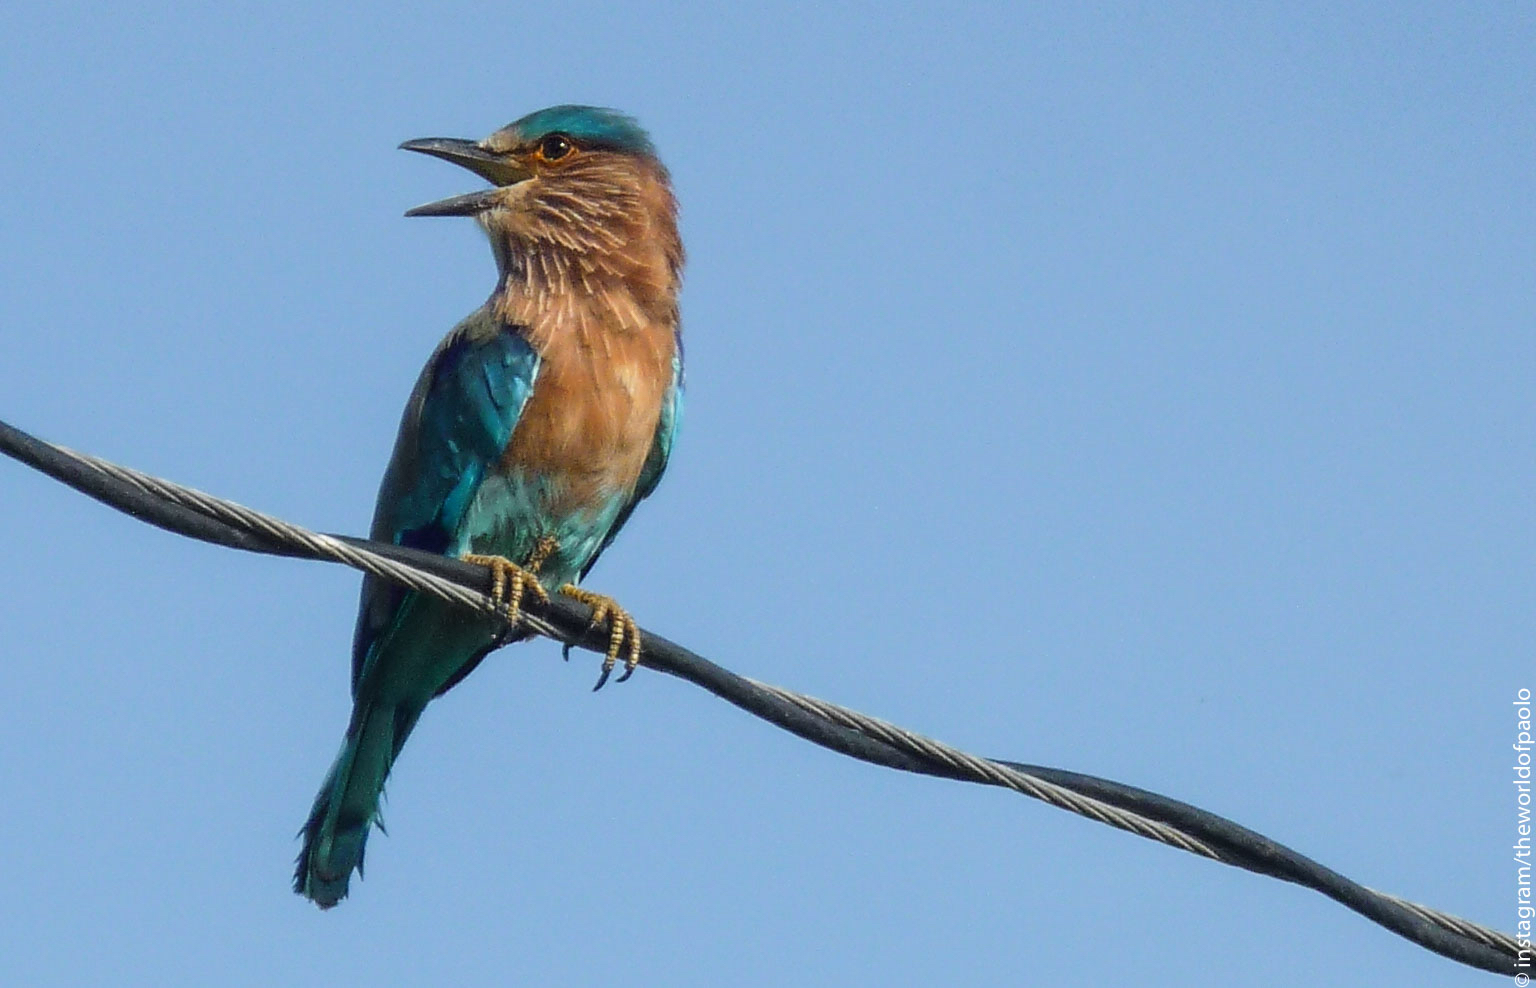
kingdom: Animalia
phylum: Chordata
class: Aves
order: Coraciiformes
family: Coraciidae
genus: Coracias
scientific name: Coracias benghalensis
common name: Indian roller
